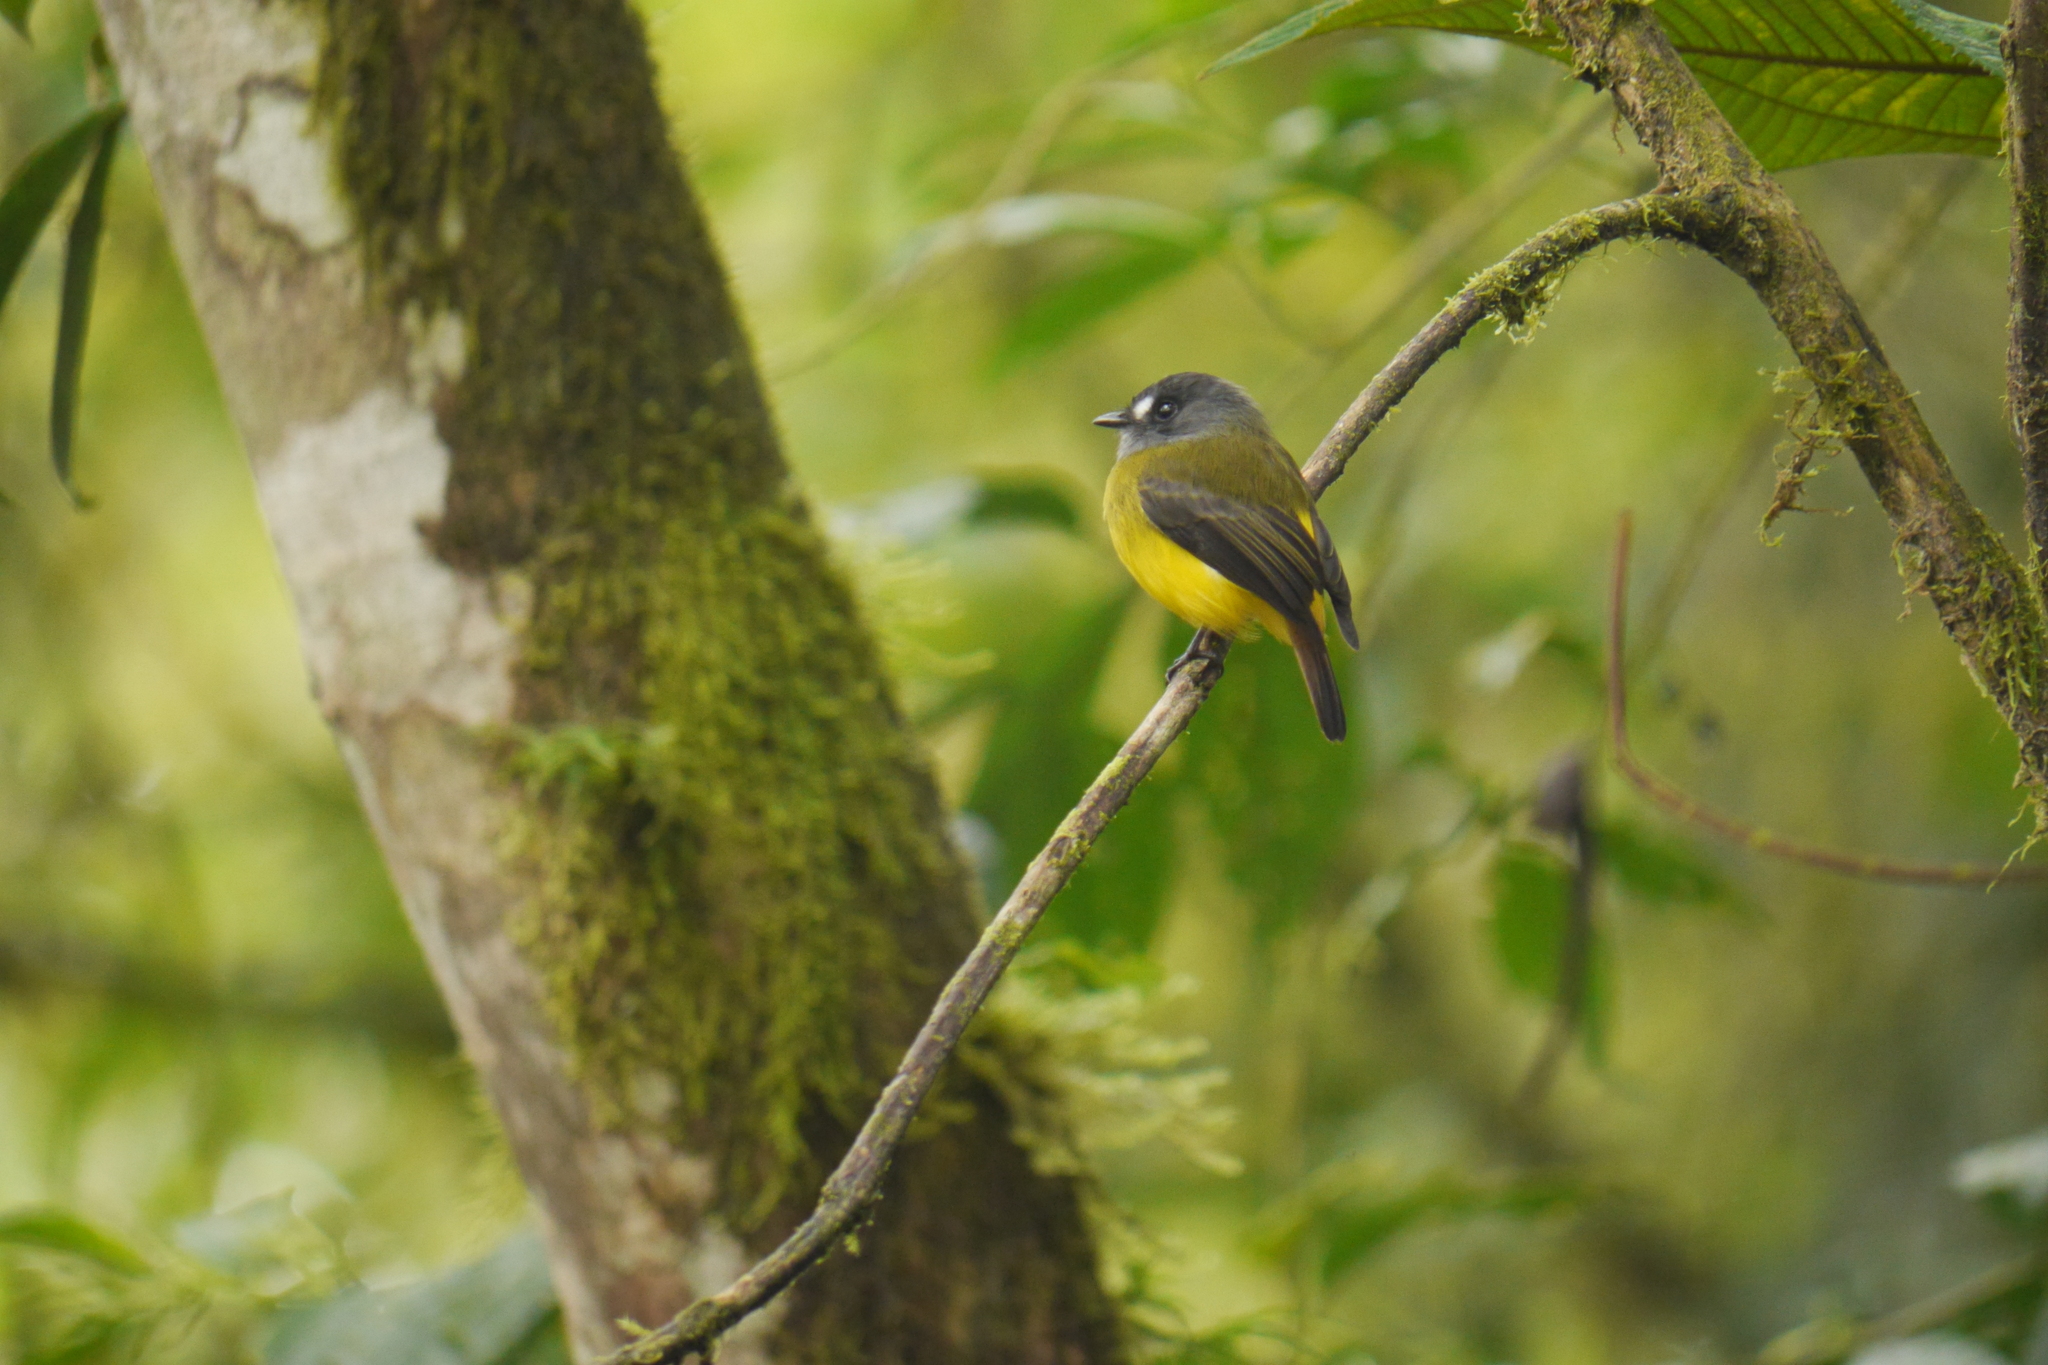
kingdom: Animalia
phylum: Chordata
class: Aves
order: Passeriformes
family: Tyrannidae
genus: Myiotriccus
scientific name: Myiotriccus ornatus
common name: Ornate flycatcher
